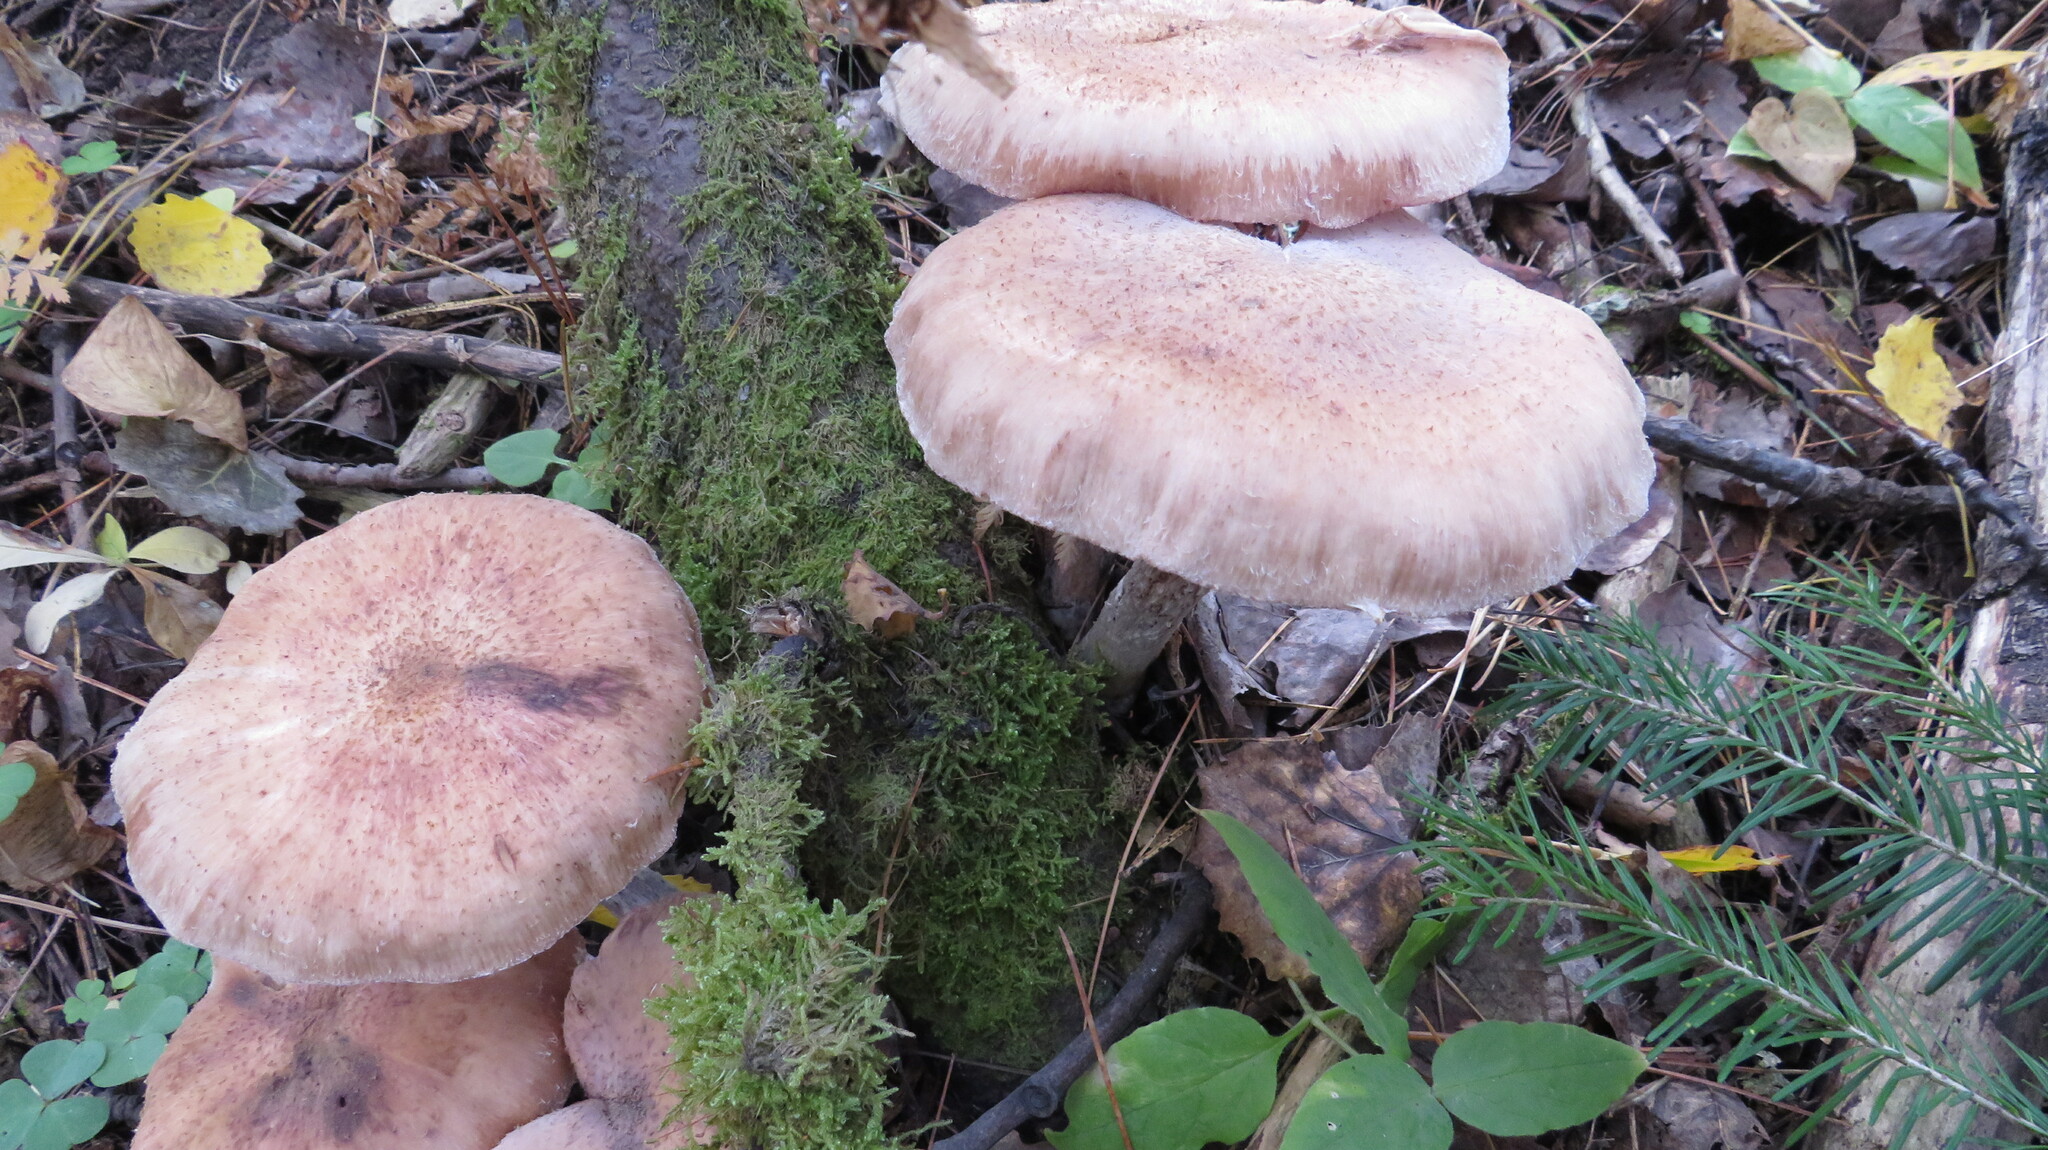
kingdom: Fungi
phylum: Basidiomycota
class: Agaricomycetes
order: Agaricales
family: Physalacriaceae
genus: Armillaria
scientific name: Armillaria borealis
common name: Northern honey fungus
